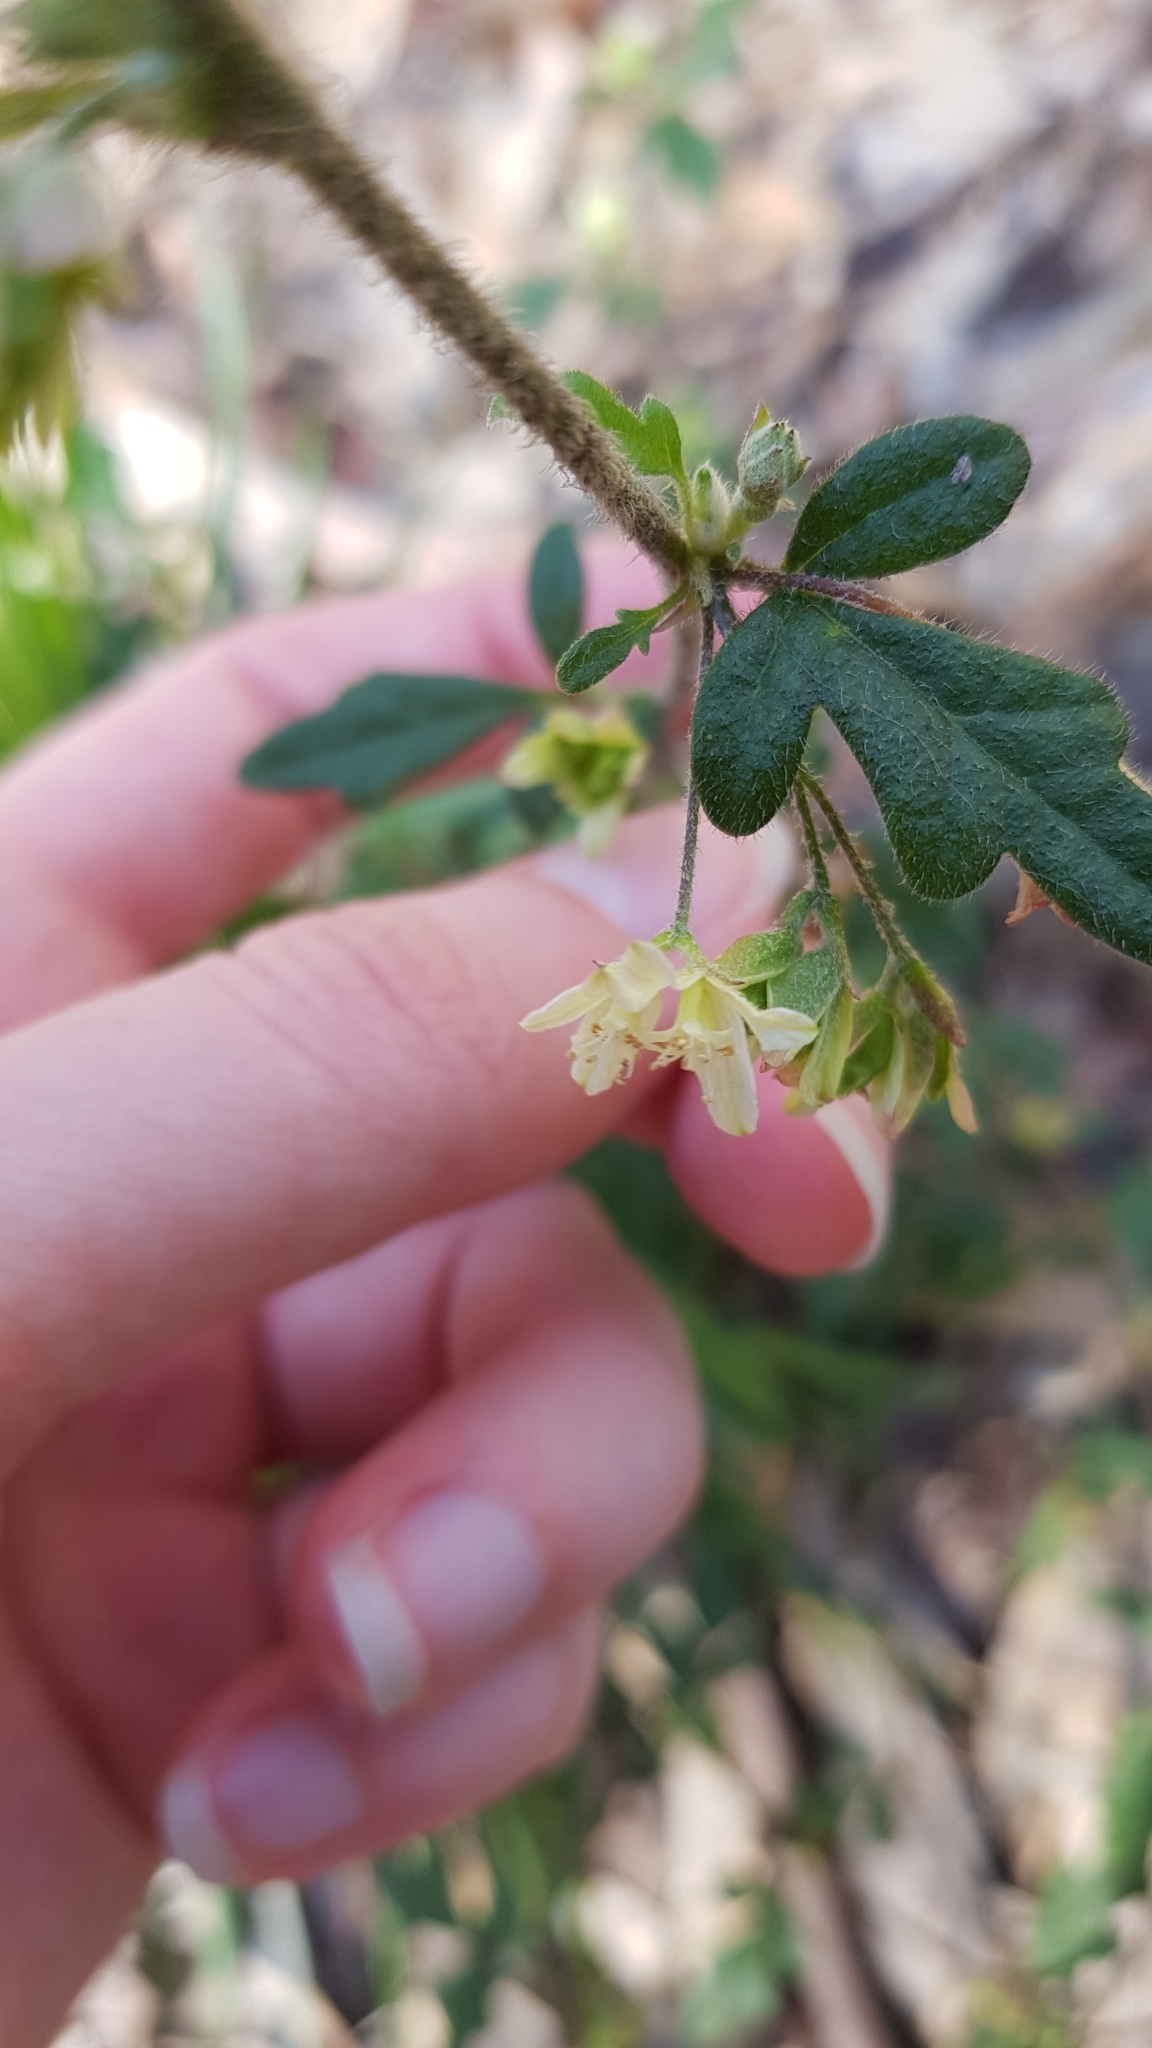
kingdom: Plantae
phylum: Tracheophyta
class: Magnoliopsida
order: Apiales
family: Apiaceae
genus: Xanthosia
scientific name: Xanthosia pilosa
